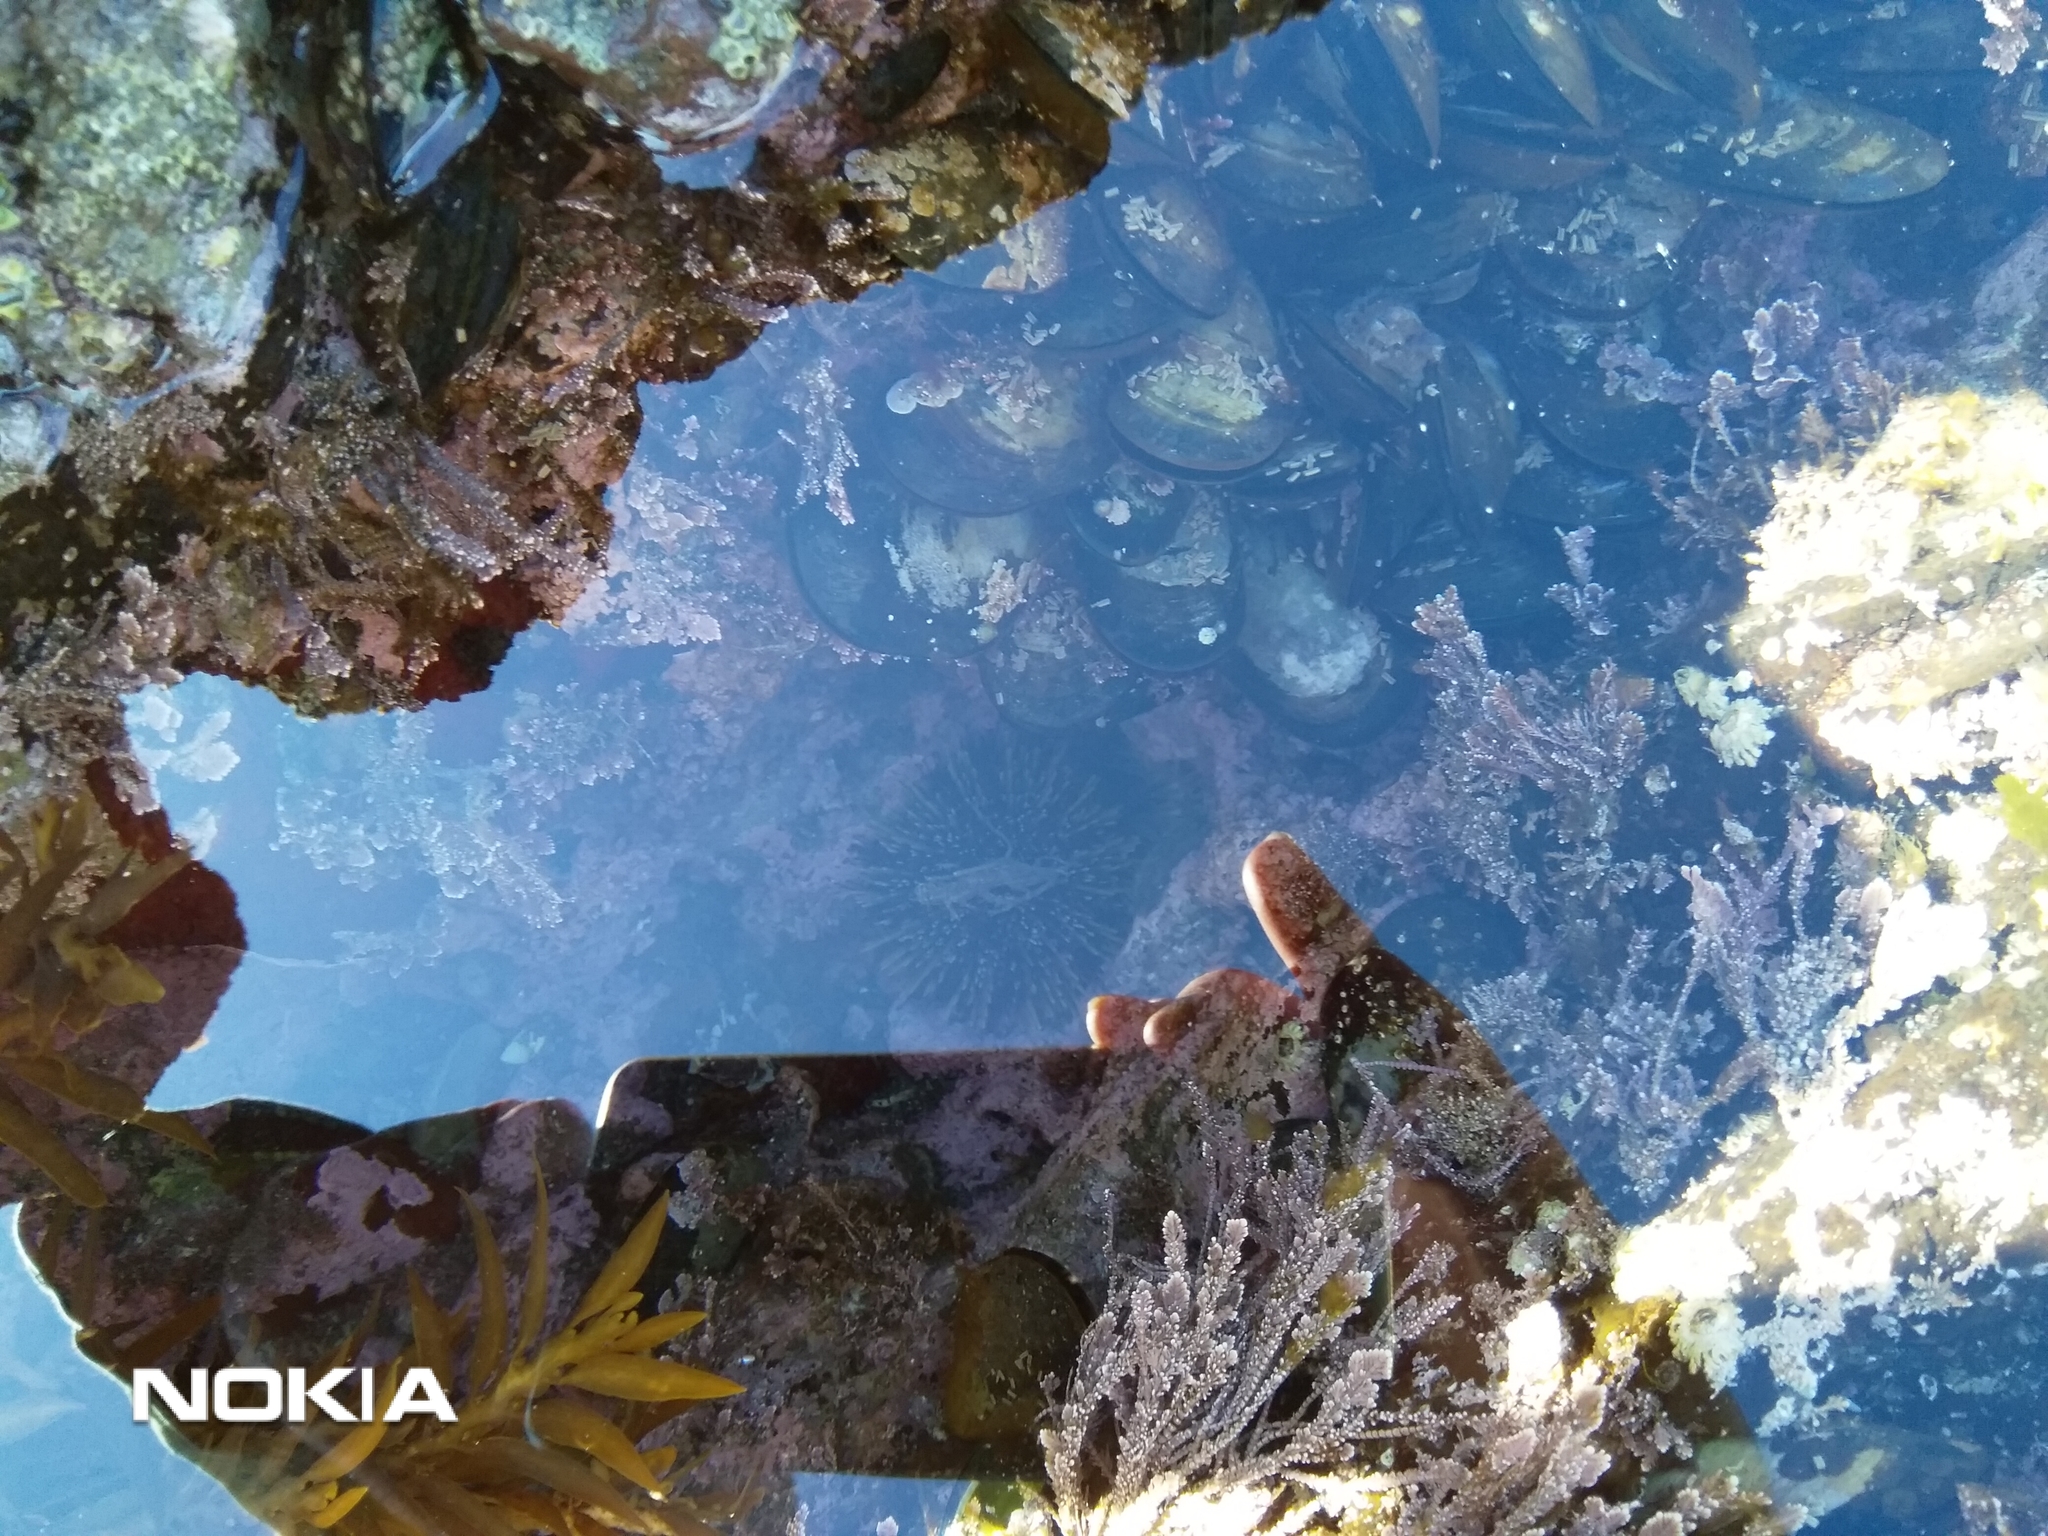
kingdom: Animalia
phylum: Mollusca
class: Bivalvia
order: Mytilida
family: Mytilidae
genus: Perna
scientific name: Perna canaliculus
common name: New zealand greenshelltm
